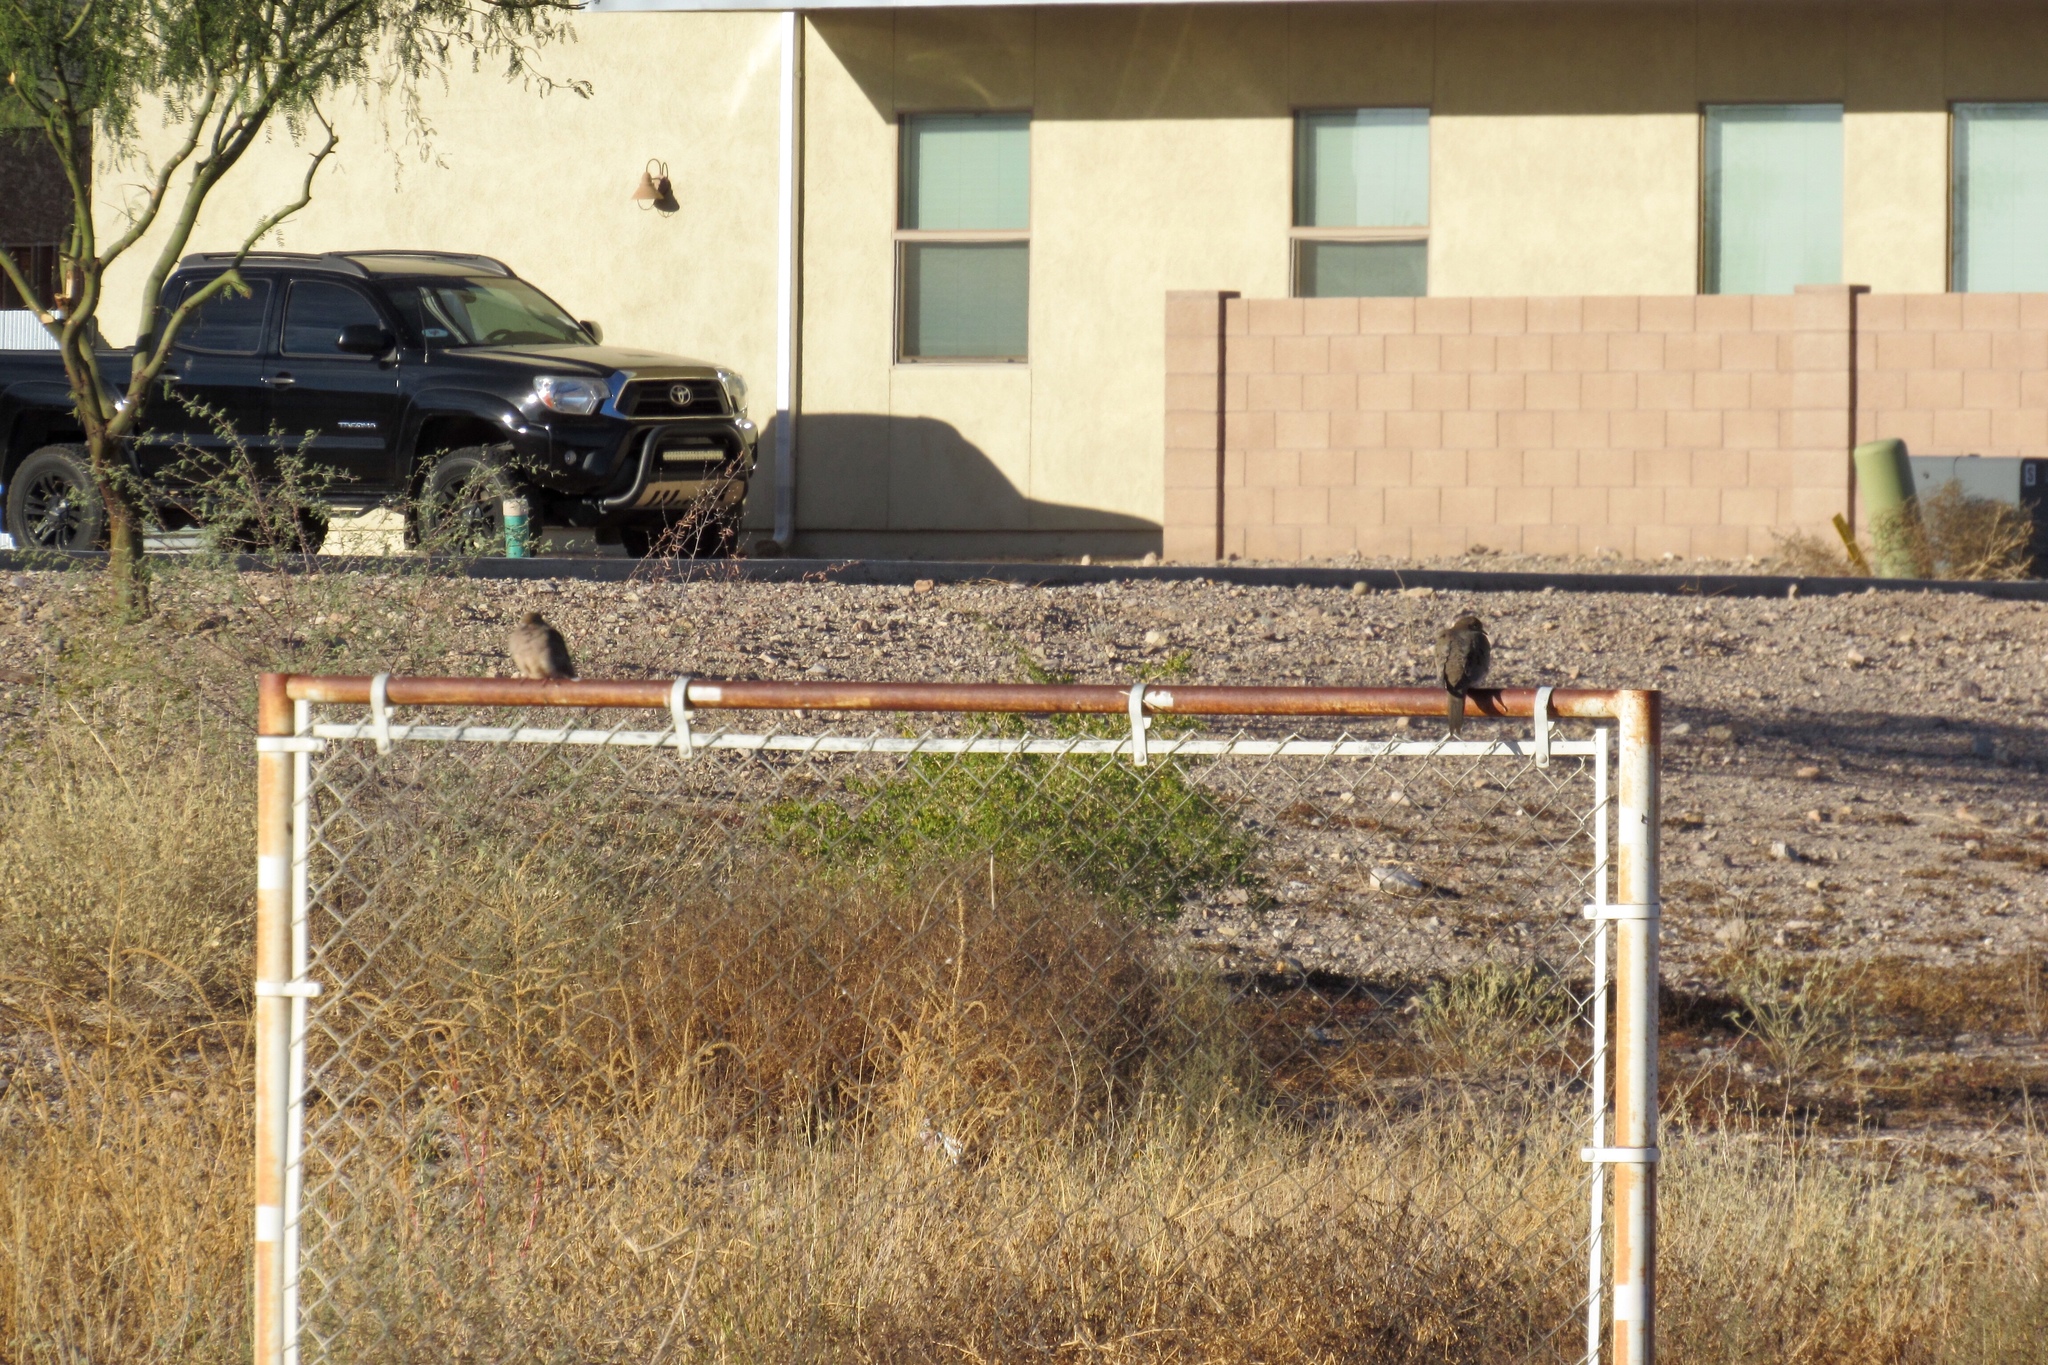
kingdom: Animalia
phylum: Chordata
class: Aves
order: Columbiformes
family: Columbidae
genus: Zenaida
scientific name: Zenaida macroura
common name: Mourning dove
